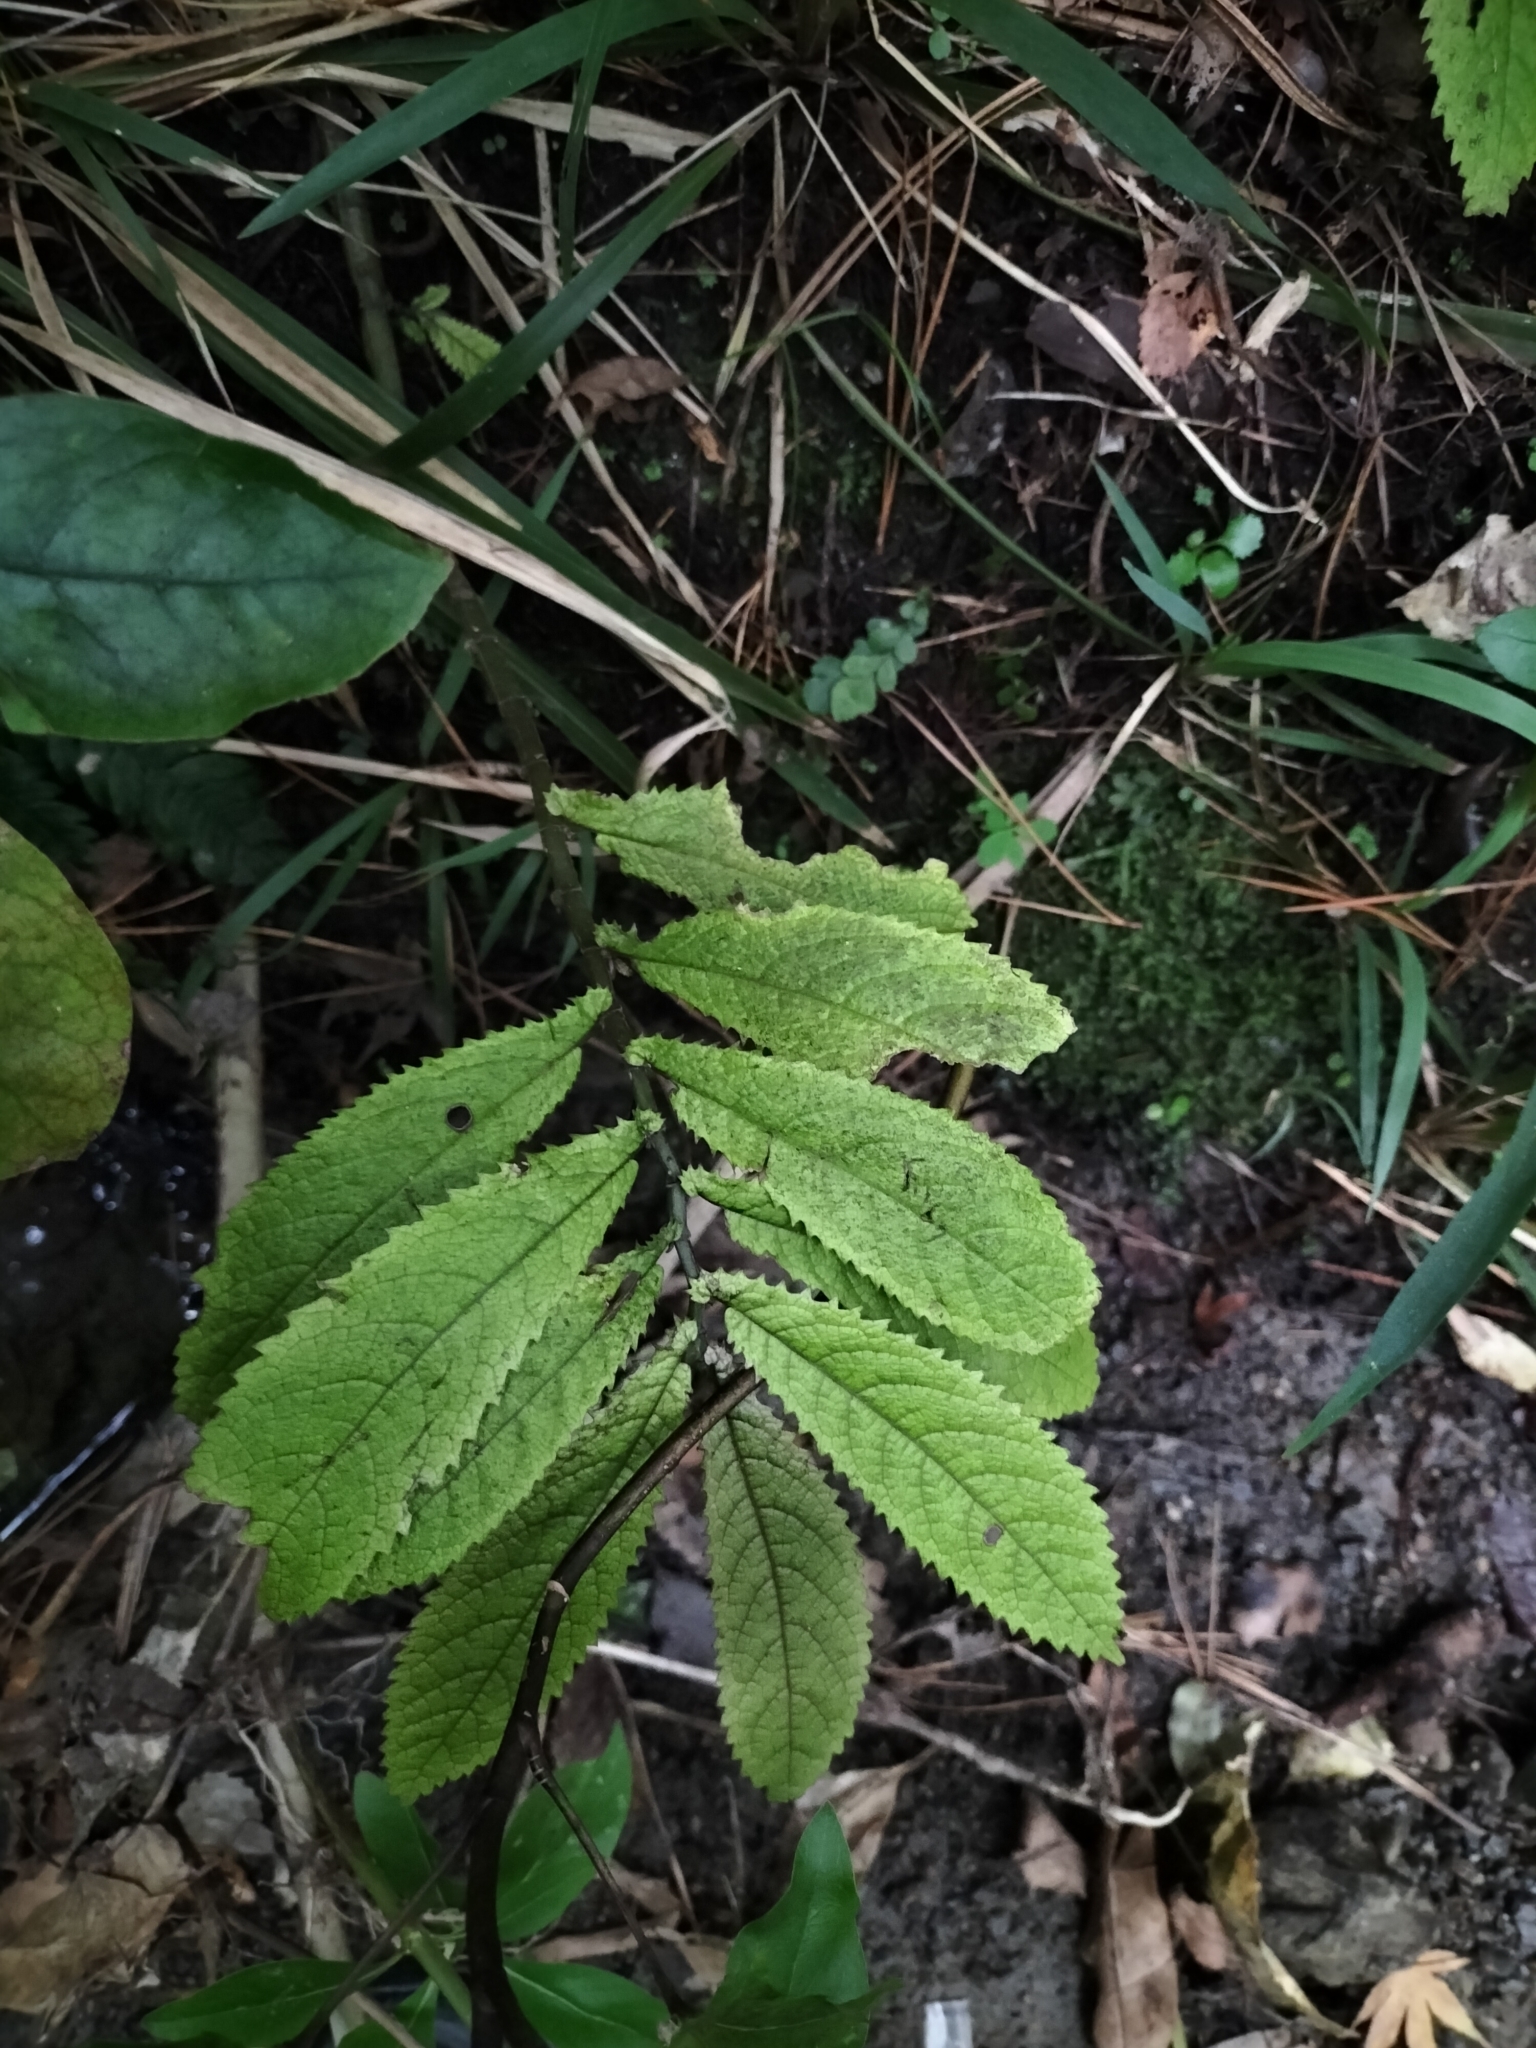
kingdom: Plantae
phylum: Tracheophyta
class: Magnoliopsida
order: Rosales
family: Urticaceae
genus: Elatostema
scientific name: Elatostema rugosum
